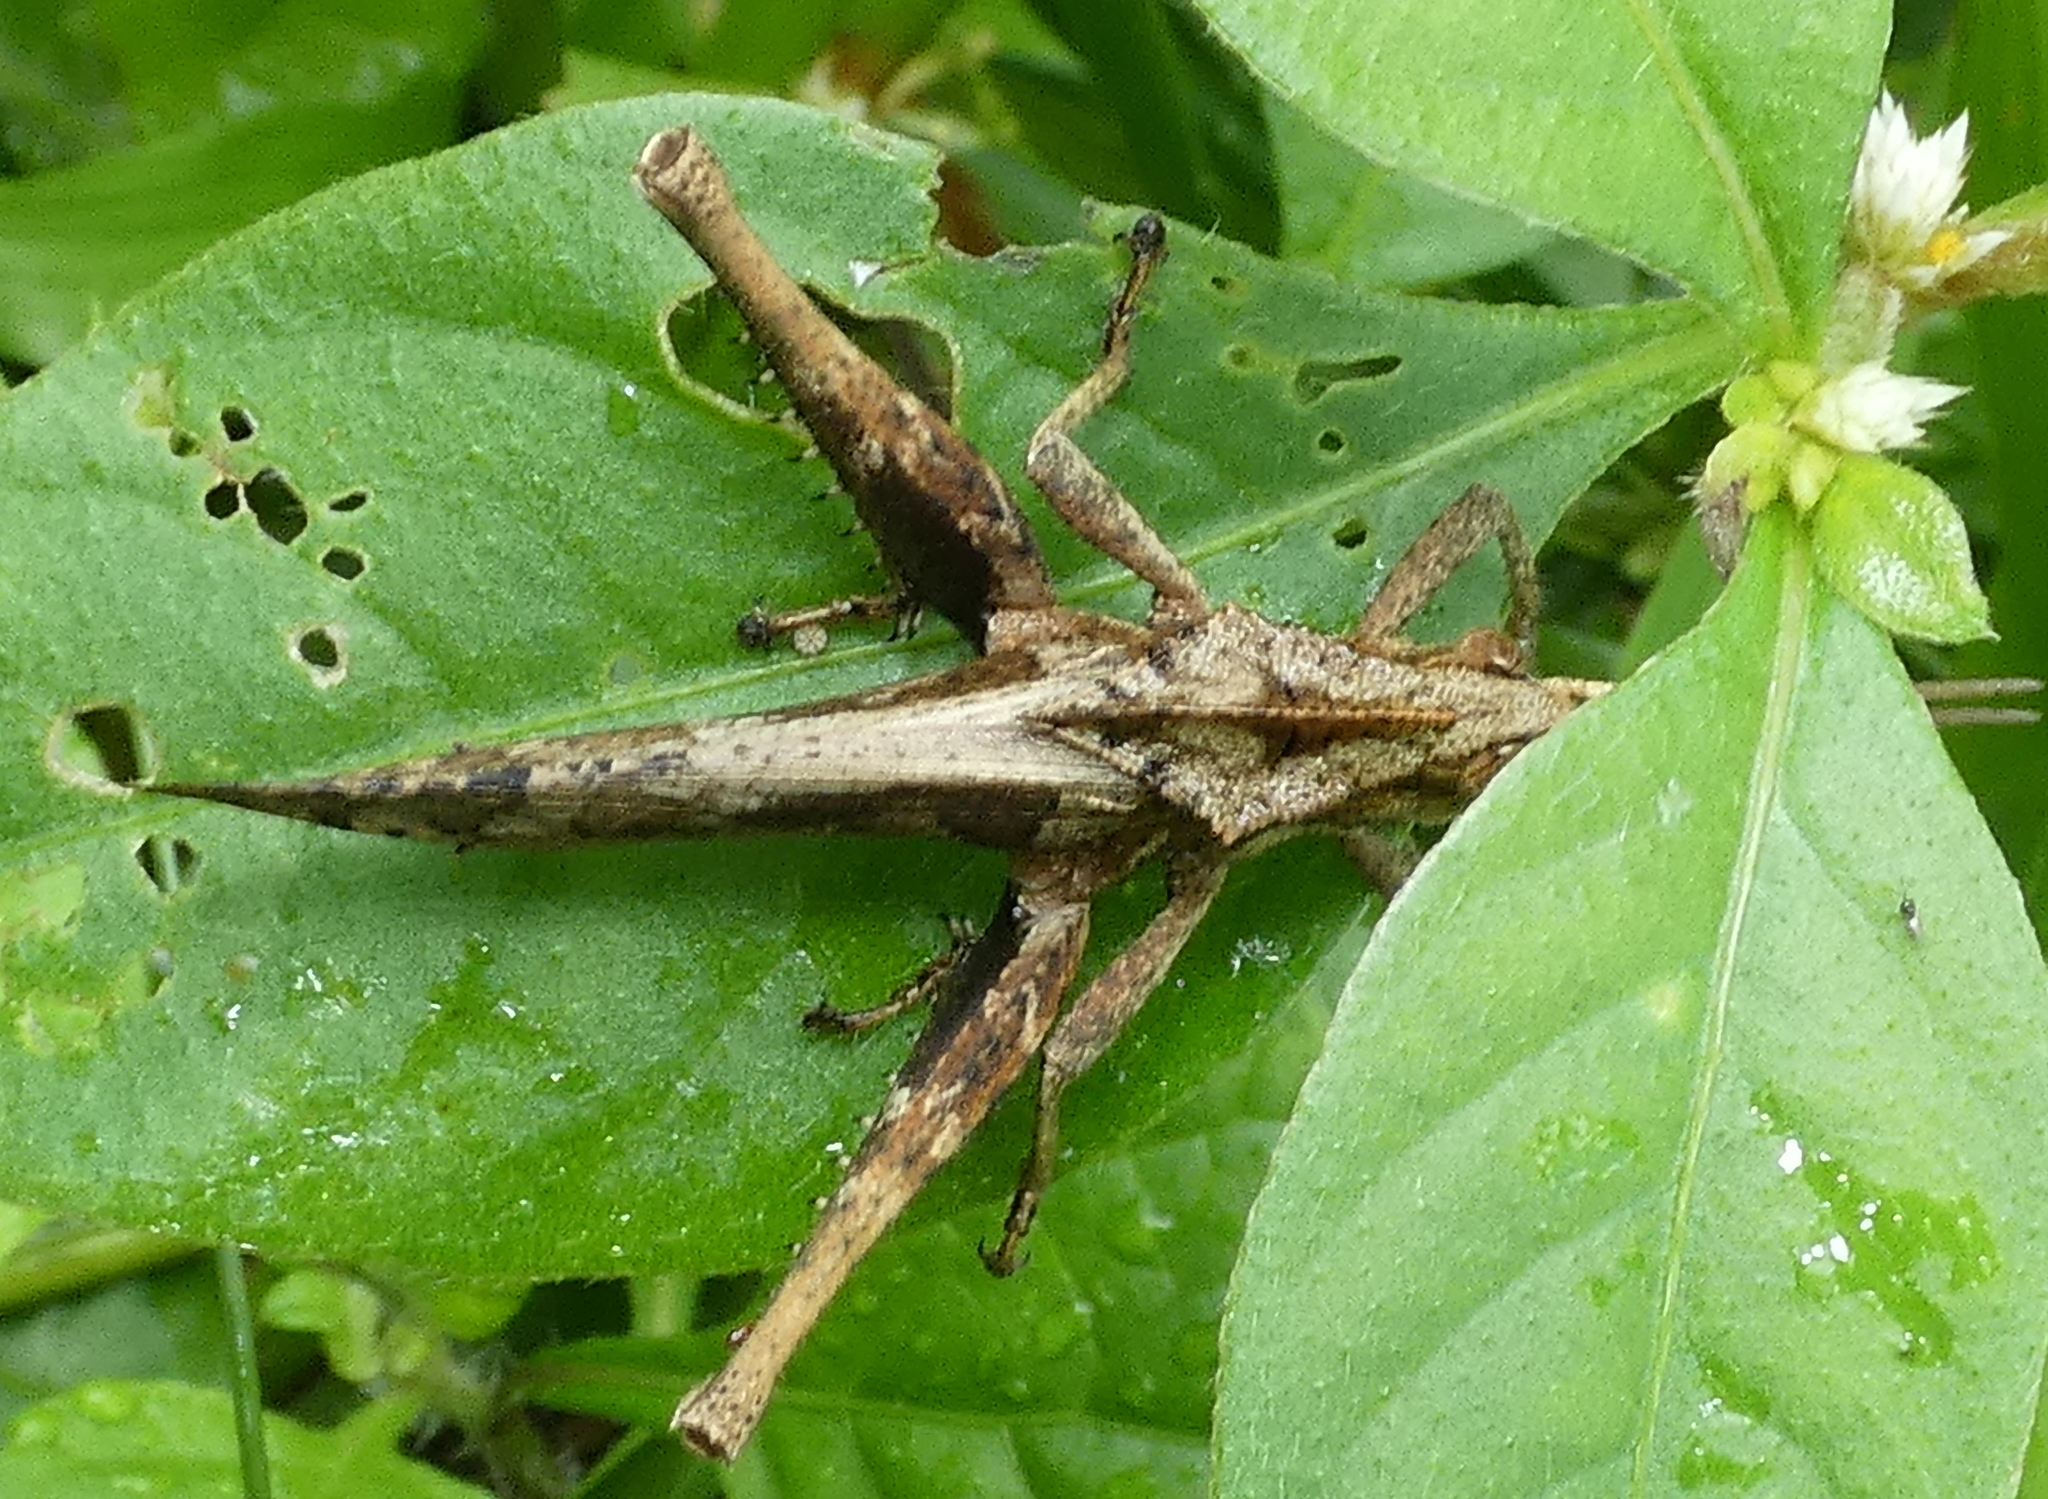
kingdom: Animalia
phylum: Arthropoda
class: Insecta
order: Orthoptera
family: Romaleidae
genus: Xyleus
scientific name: Xyleus discoideus
